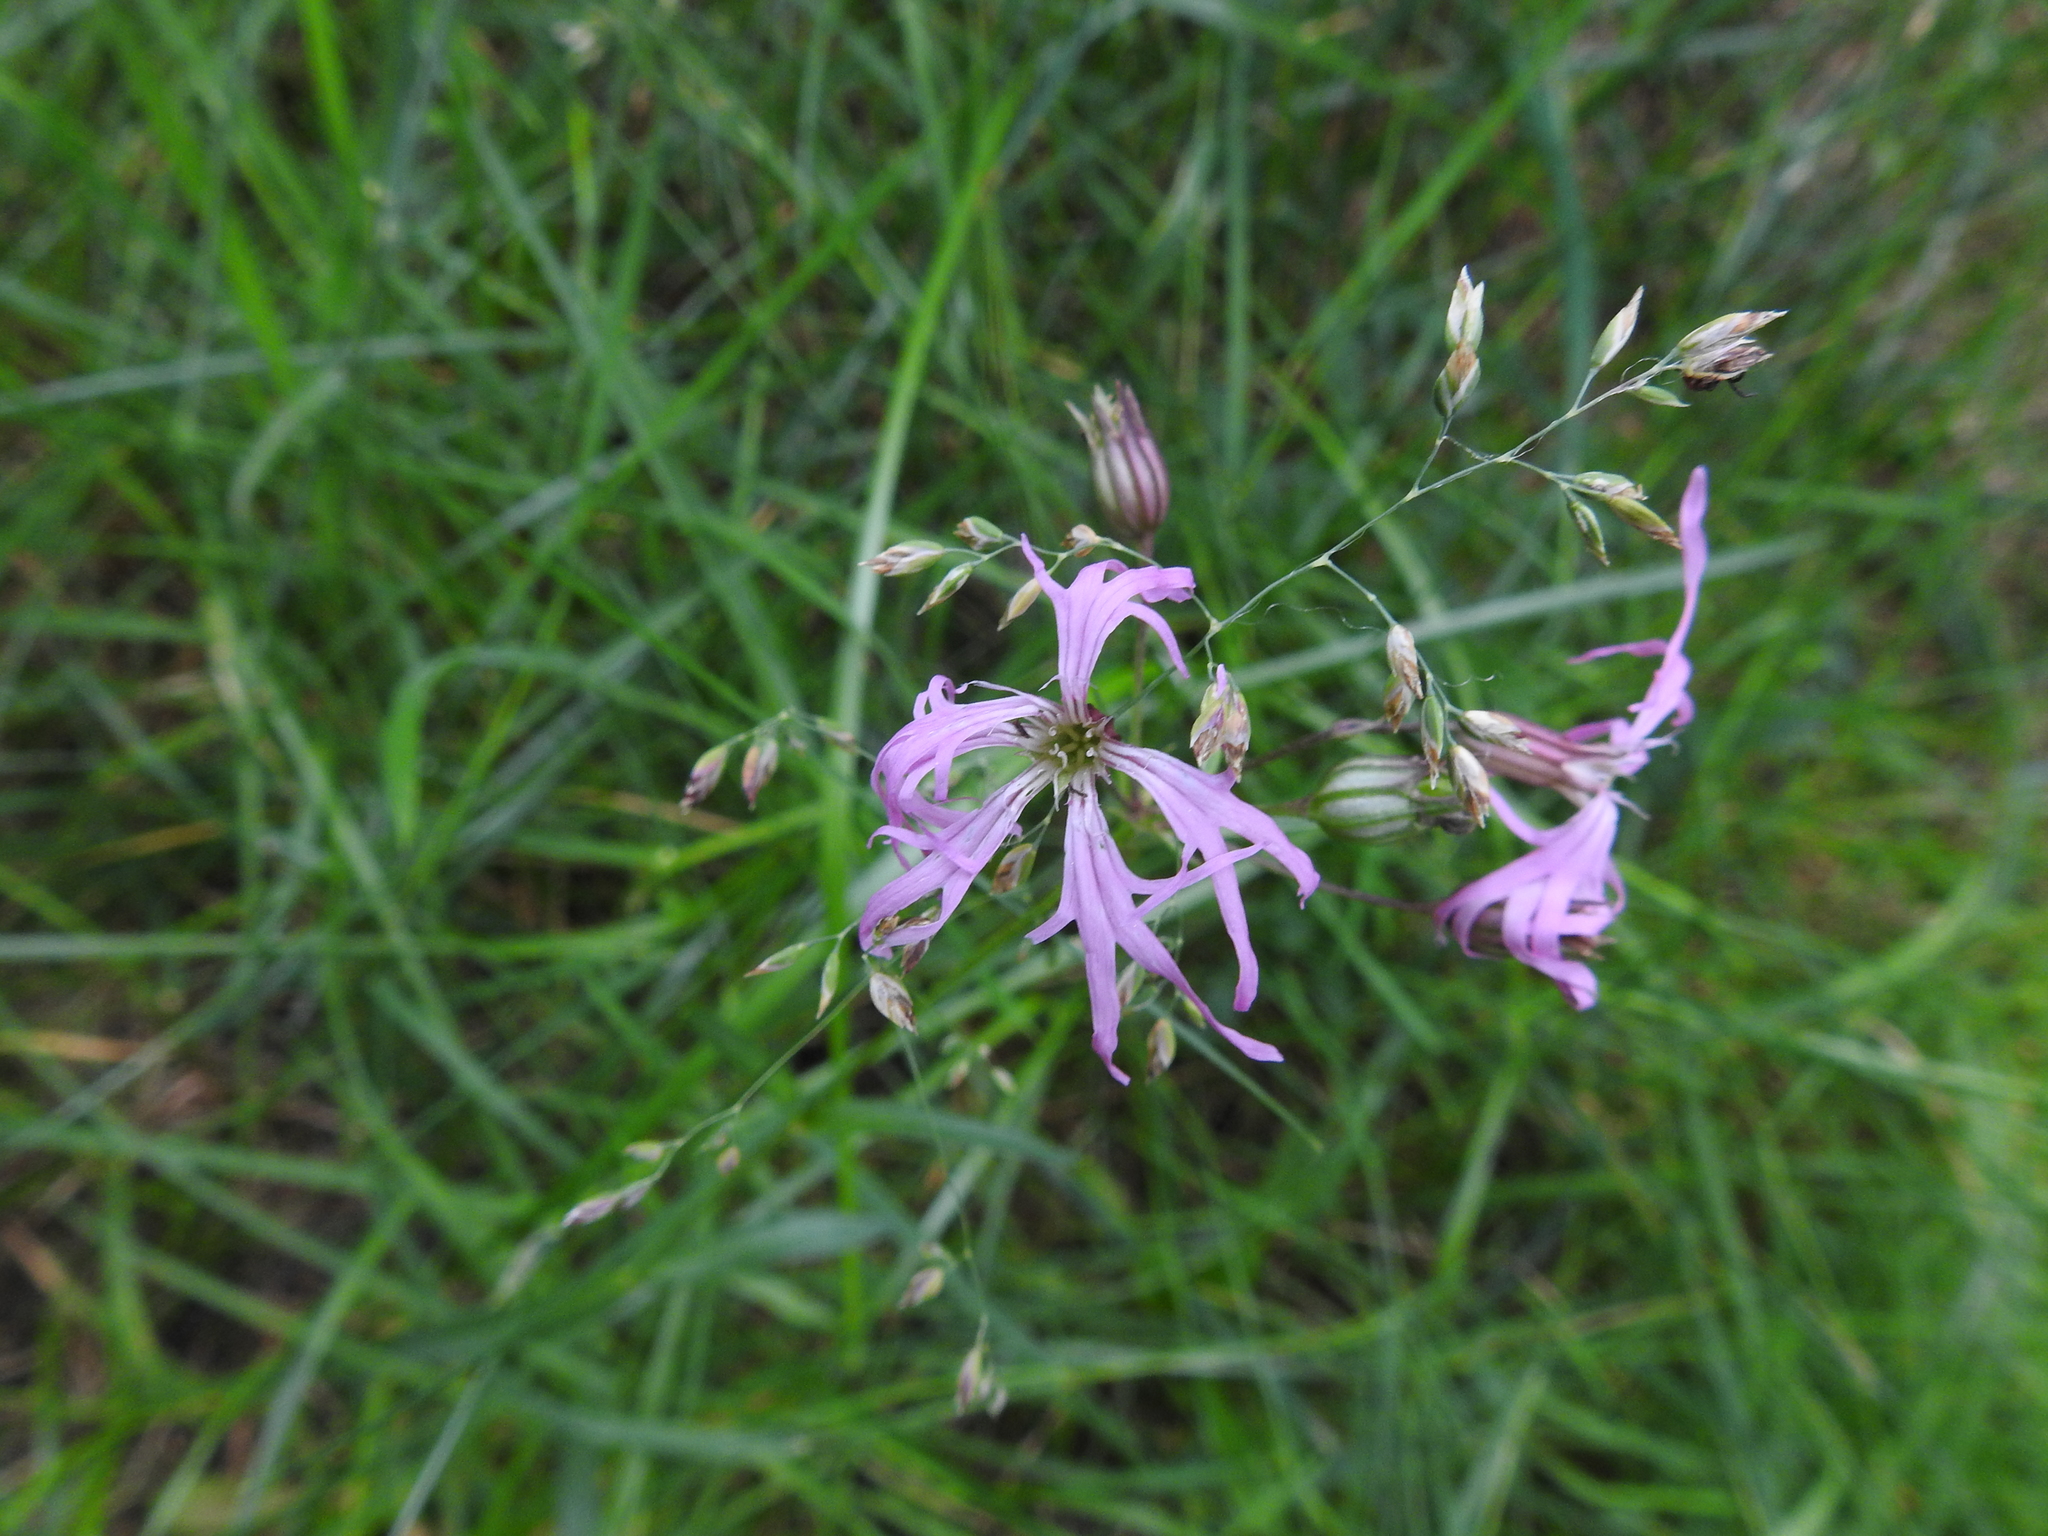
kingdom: Plantae
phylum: Tracheophyta
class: Magnoliopsida
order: Caryophyllales
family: Caryophyllaceae
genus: Silene
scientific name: Silene flos-cuculi
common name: Ragged-robin
